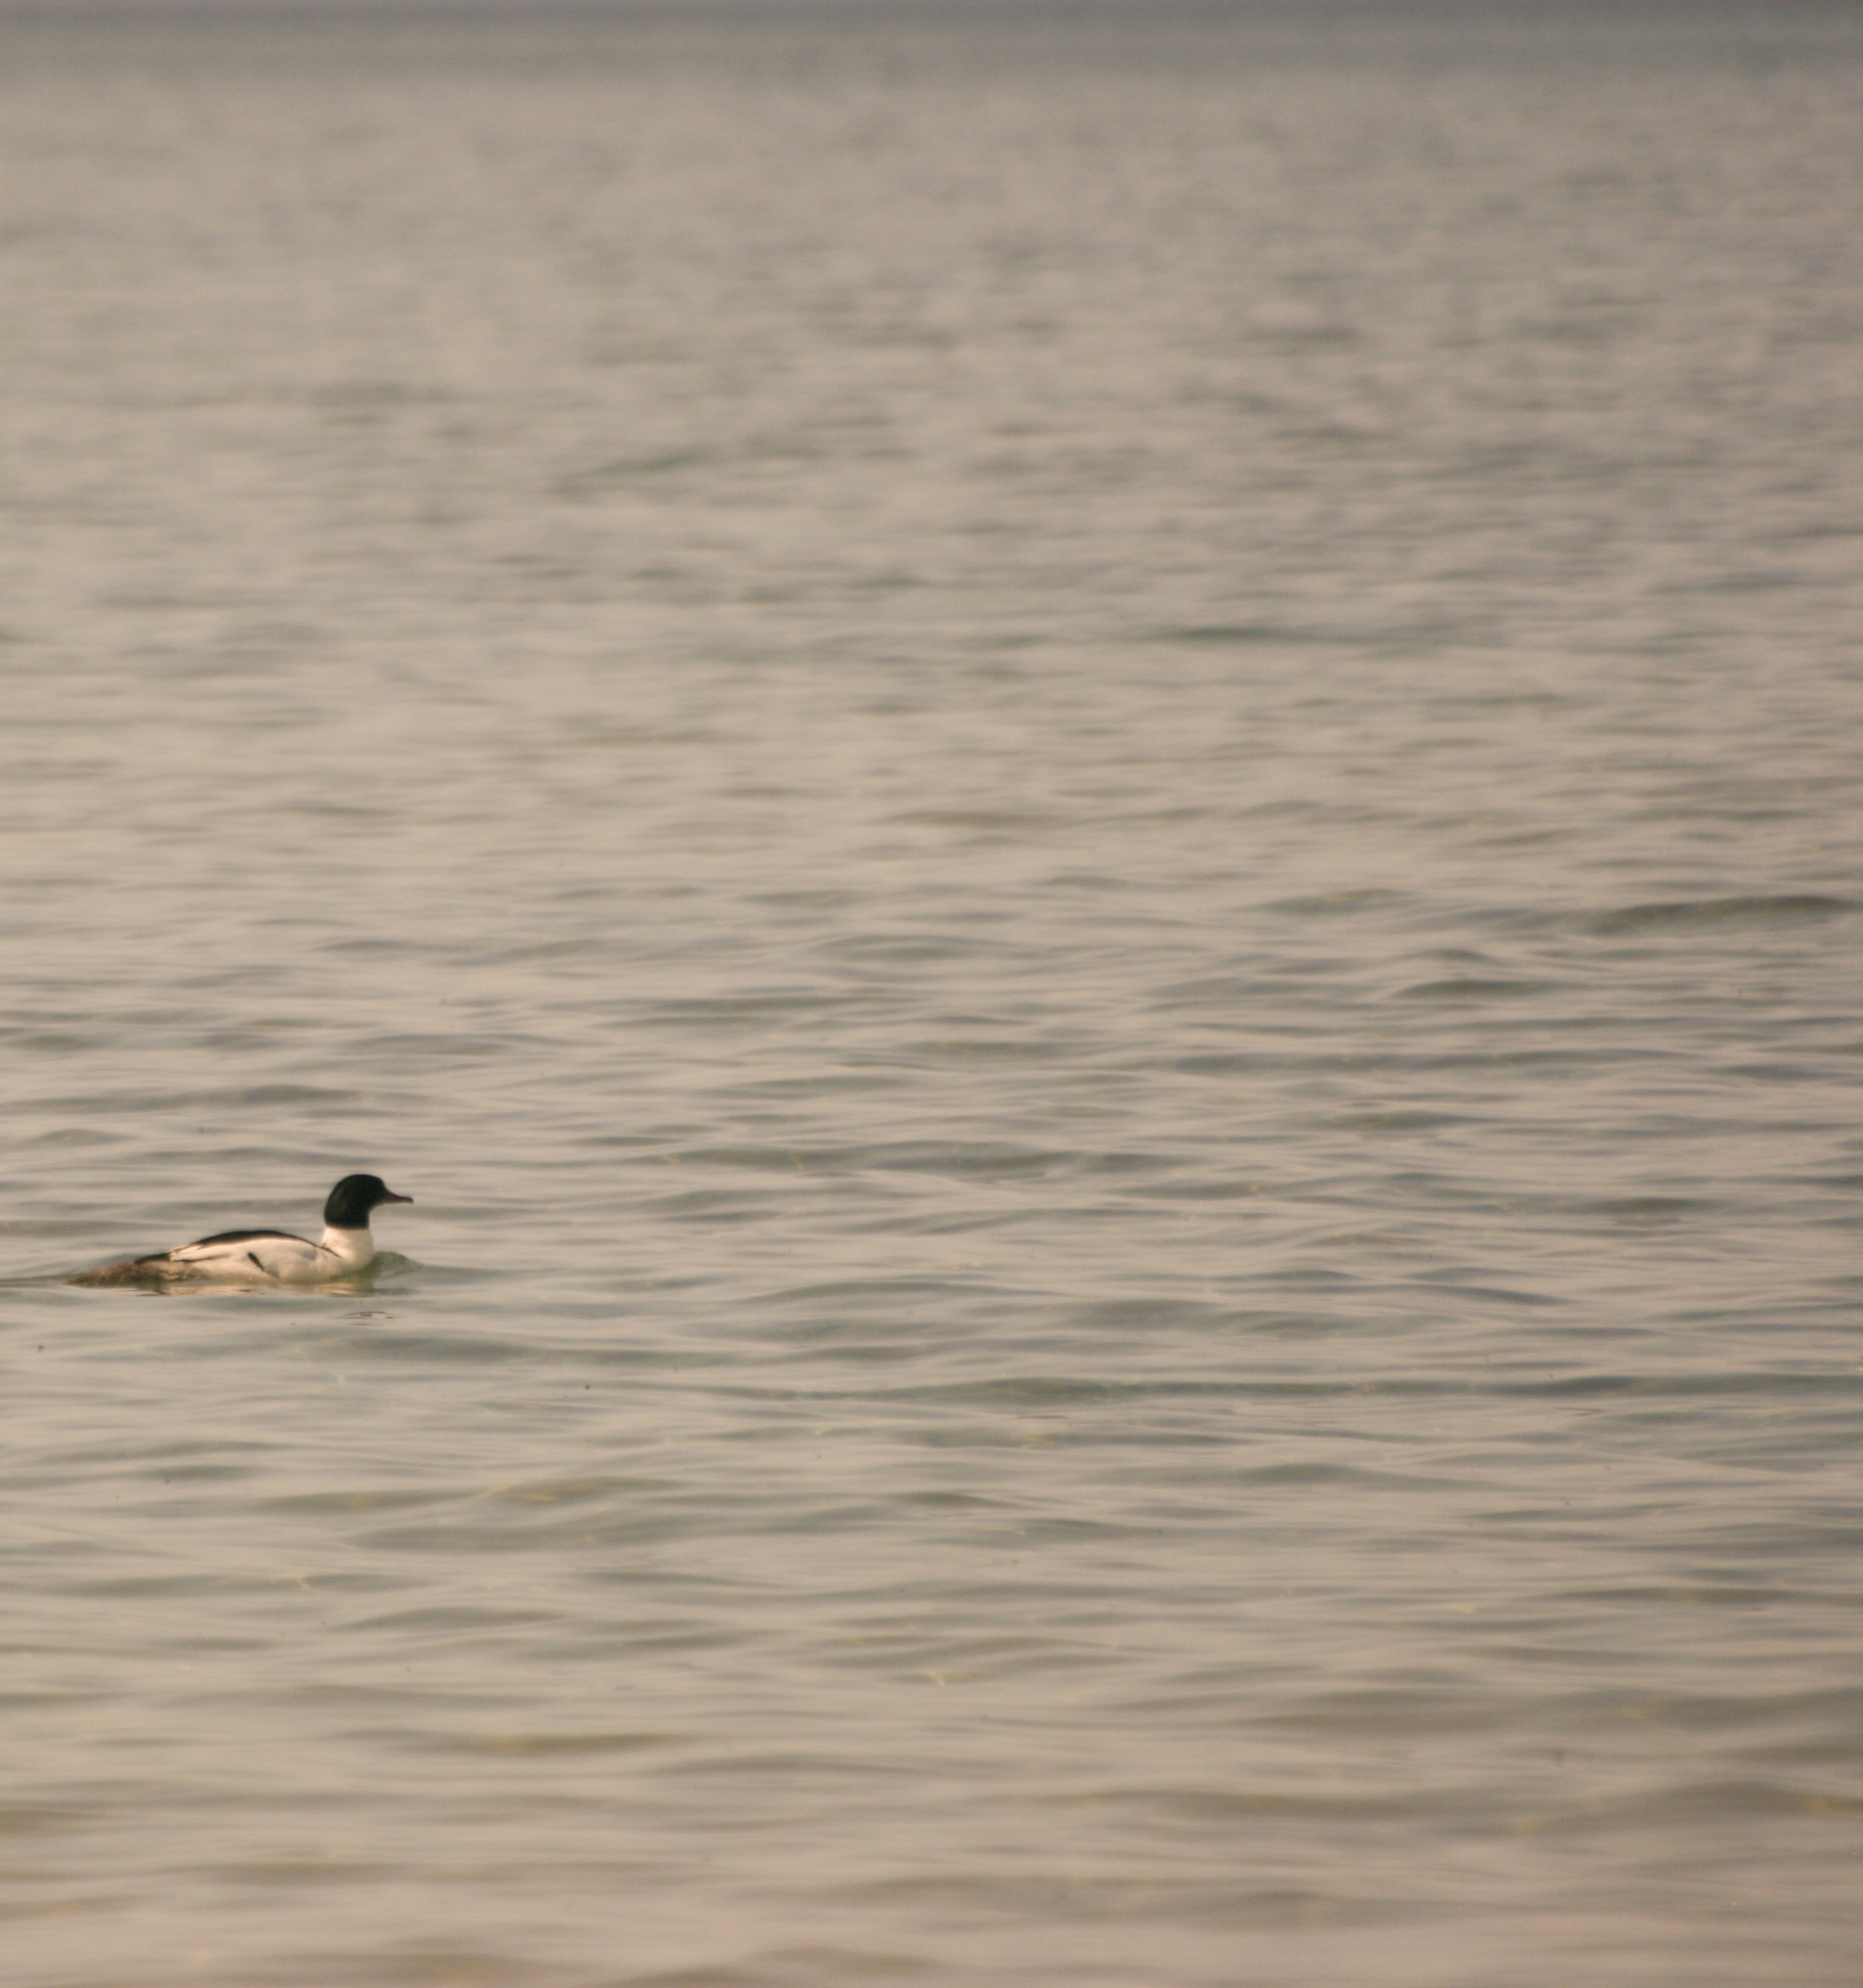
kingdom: Animalia
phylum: Chordata
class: Aves
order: Anseriformes
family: Anatidae
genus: Mergus
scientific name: Mergus merganser
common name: Common merganser
